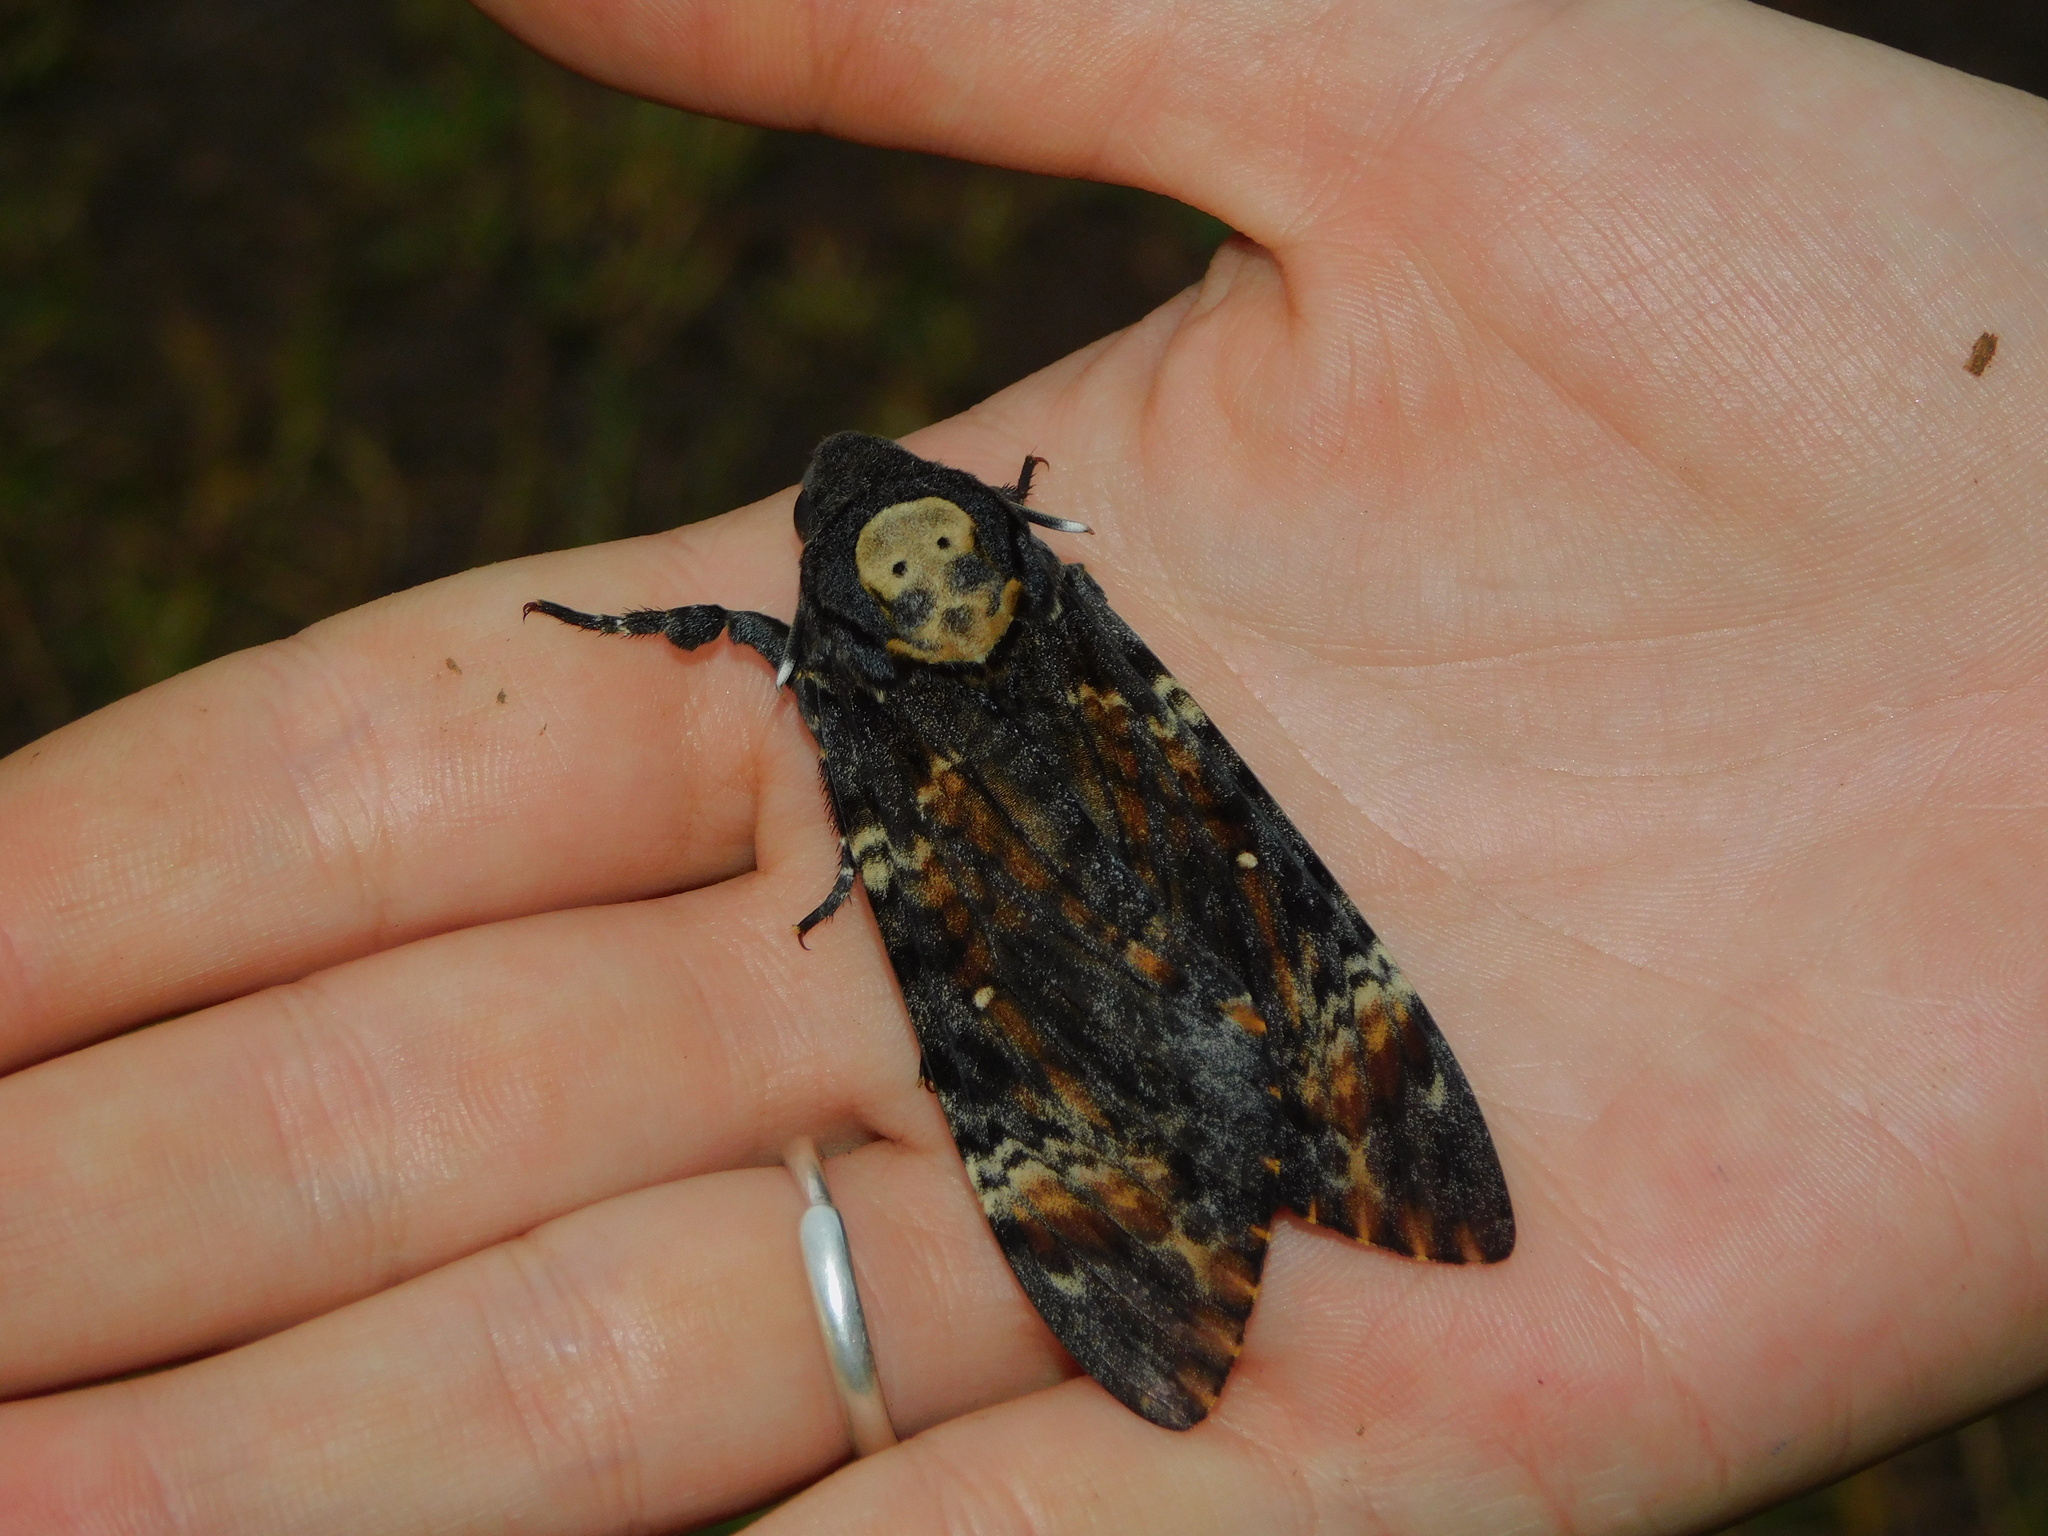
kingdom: Animalia
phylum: Arthropoda
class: Insecta
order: Lepidoptera
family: Sphingidae
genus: Acherontia
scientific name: Acherontia atropos
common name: Death's-head hawk moth
